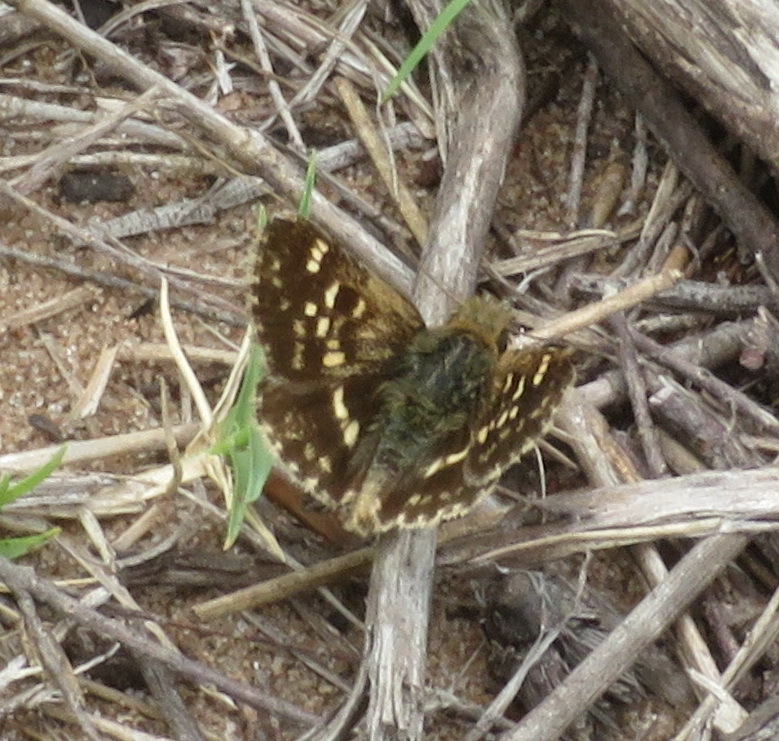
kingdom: Animalia
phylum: Arthropoda
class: Insecta
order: Lepidoptera
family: Hesperiidae
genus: Ernsta
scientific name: Ernsta
